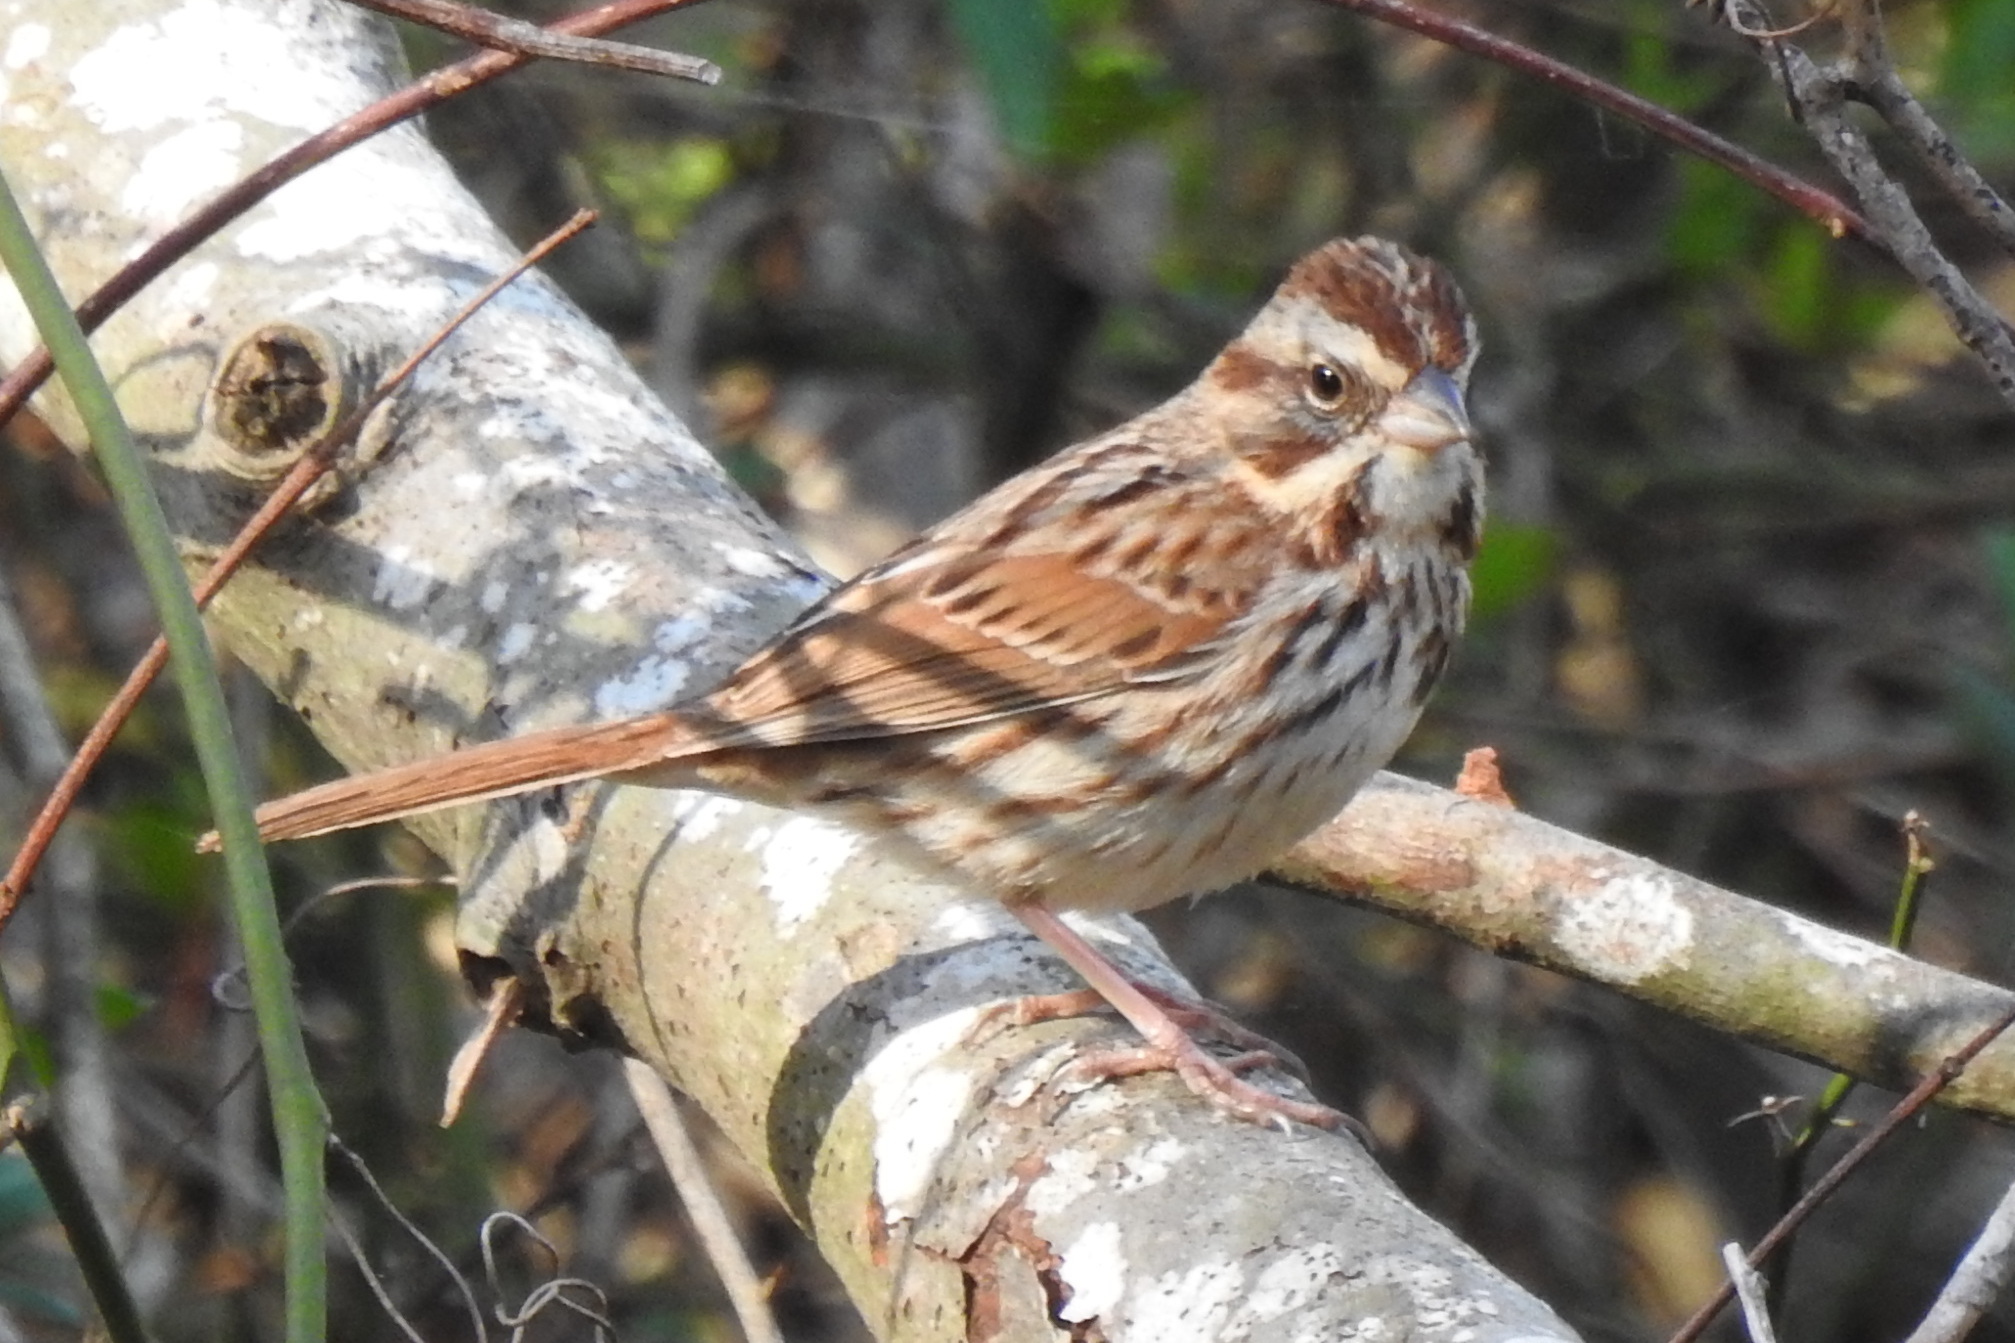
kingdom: Animalia
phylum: Chordata
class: Aves
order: Passeriformes
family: Passerellidae
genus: Melospiza
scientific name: Melospiza melodia
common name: Song sparrow
